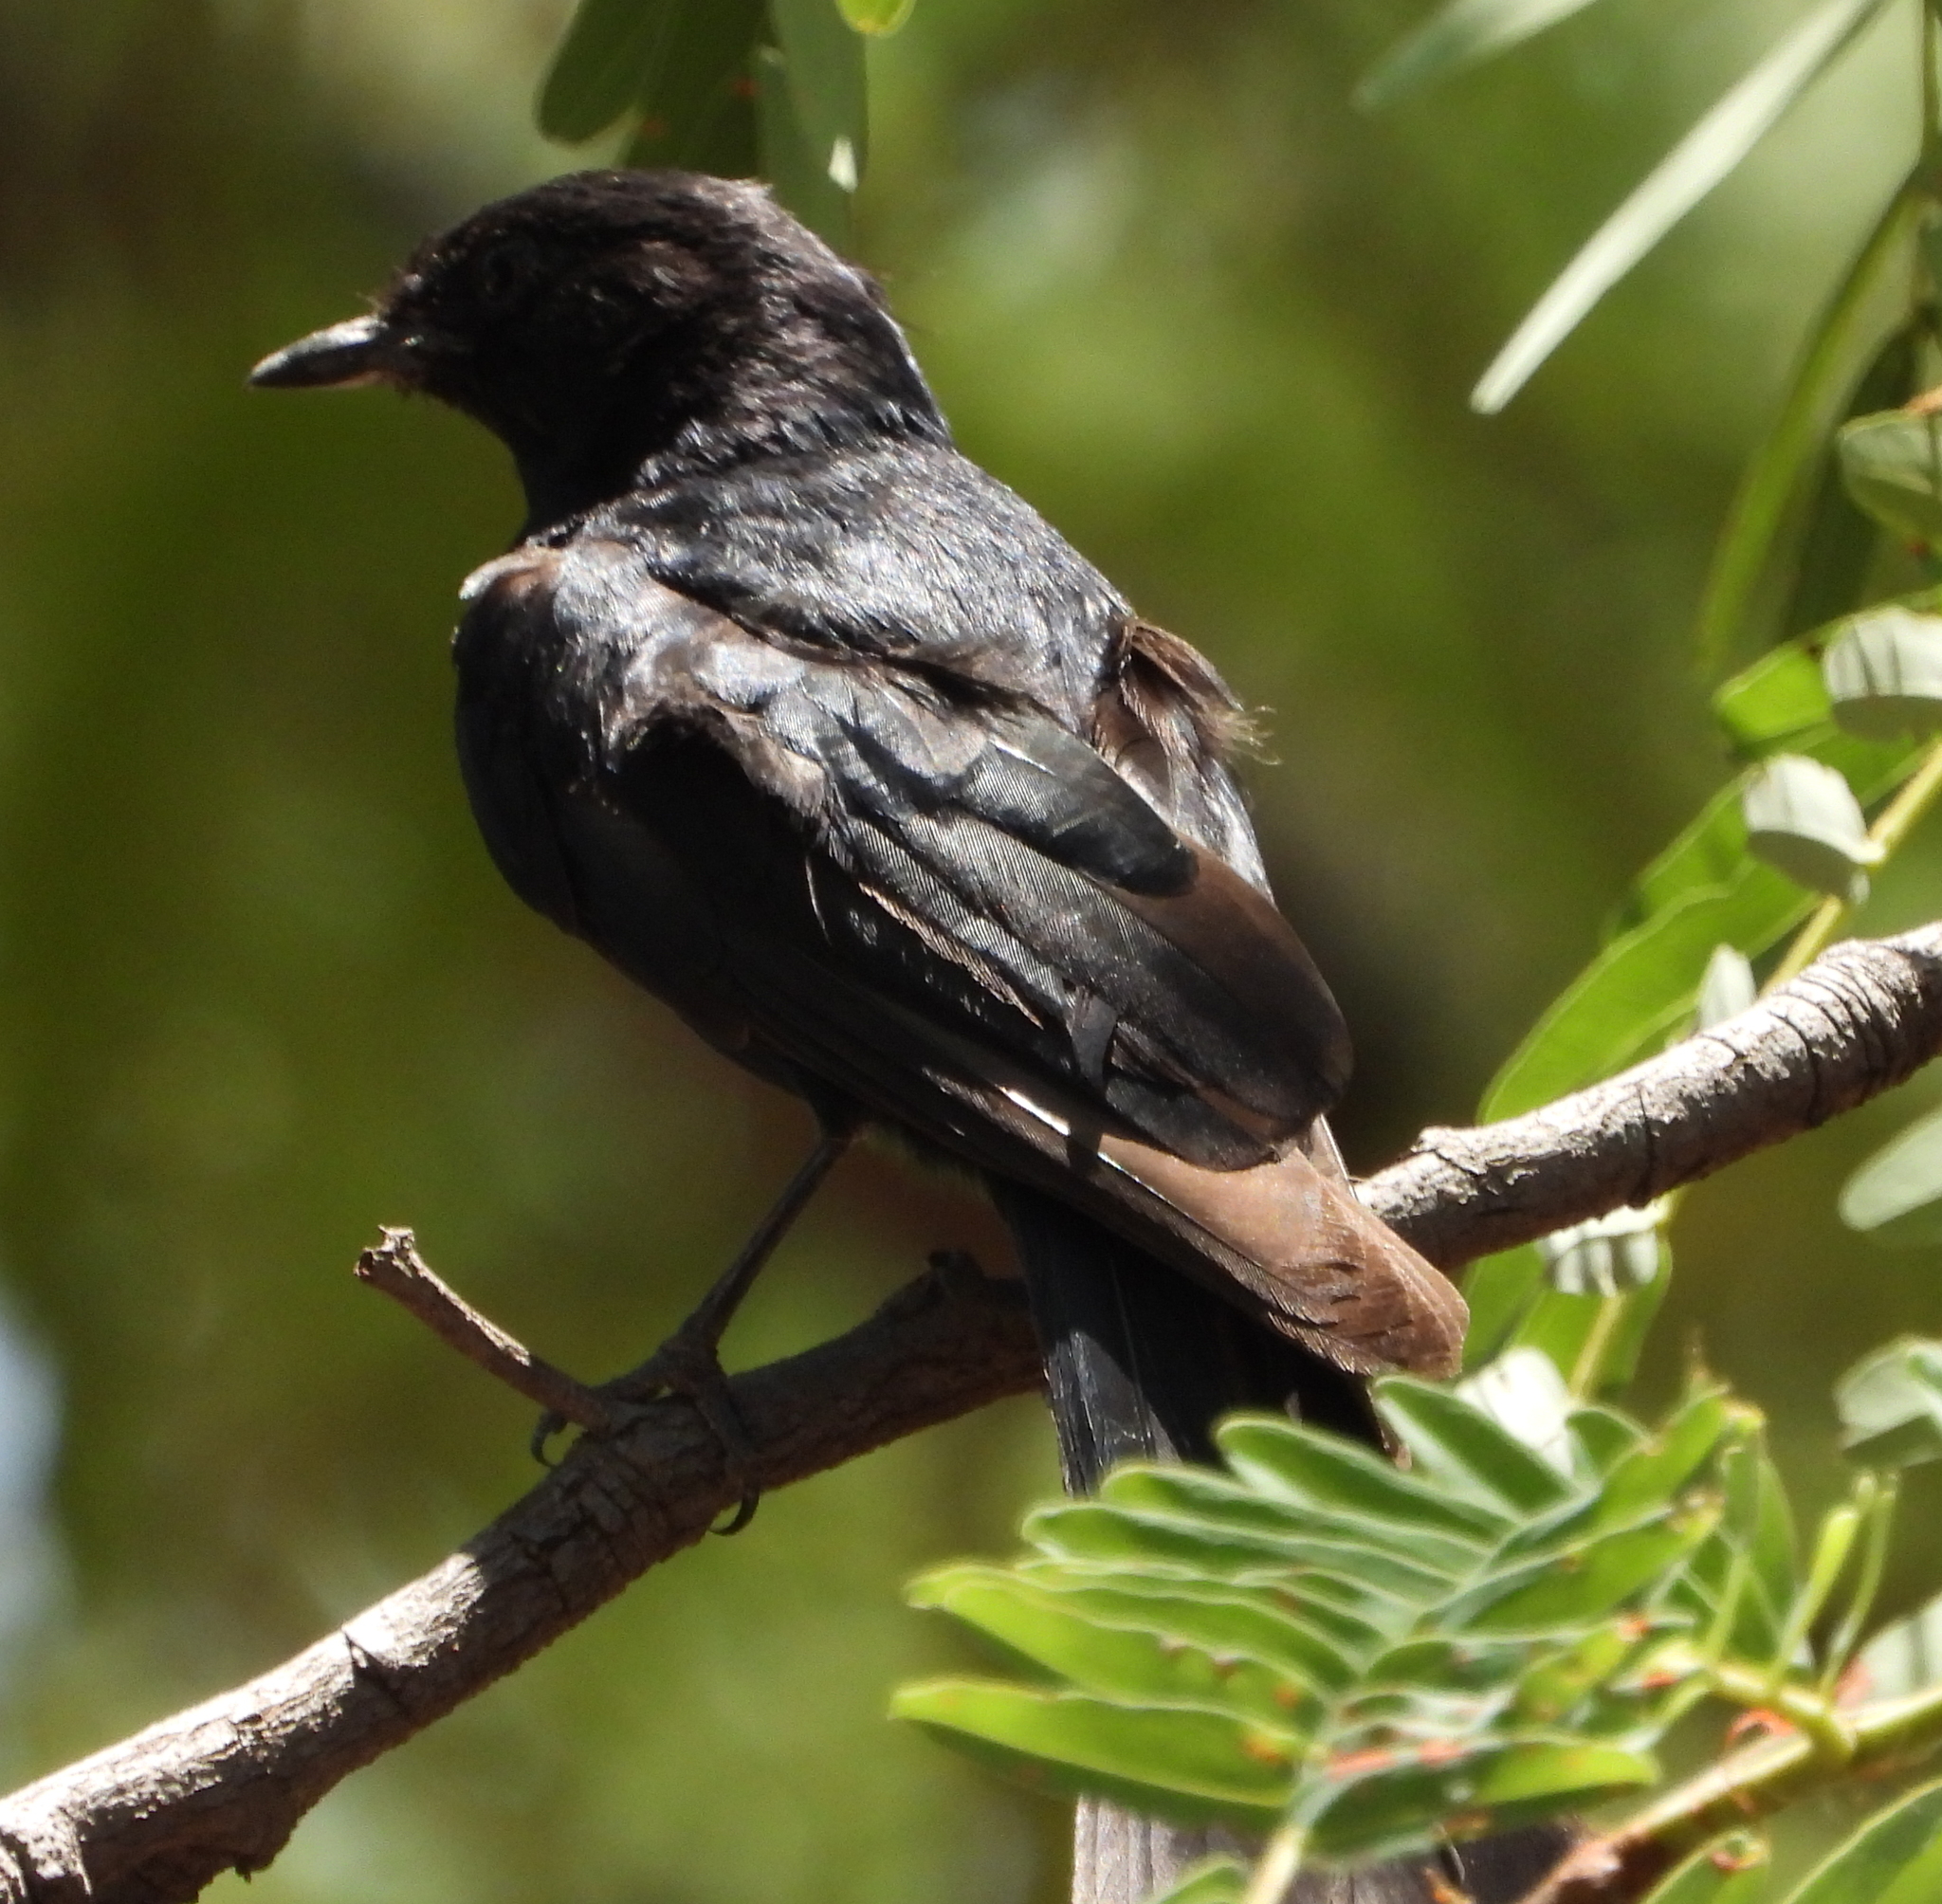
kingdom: Animalia
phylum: Chordata
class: Aves
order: Passeriformes
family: Muscicapidae
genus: Melaenornis
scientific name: Melaenornis pammelaina
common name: Southern black flycatcher
